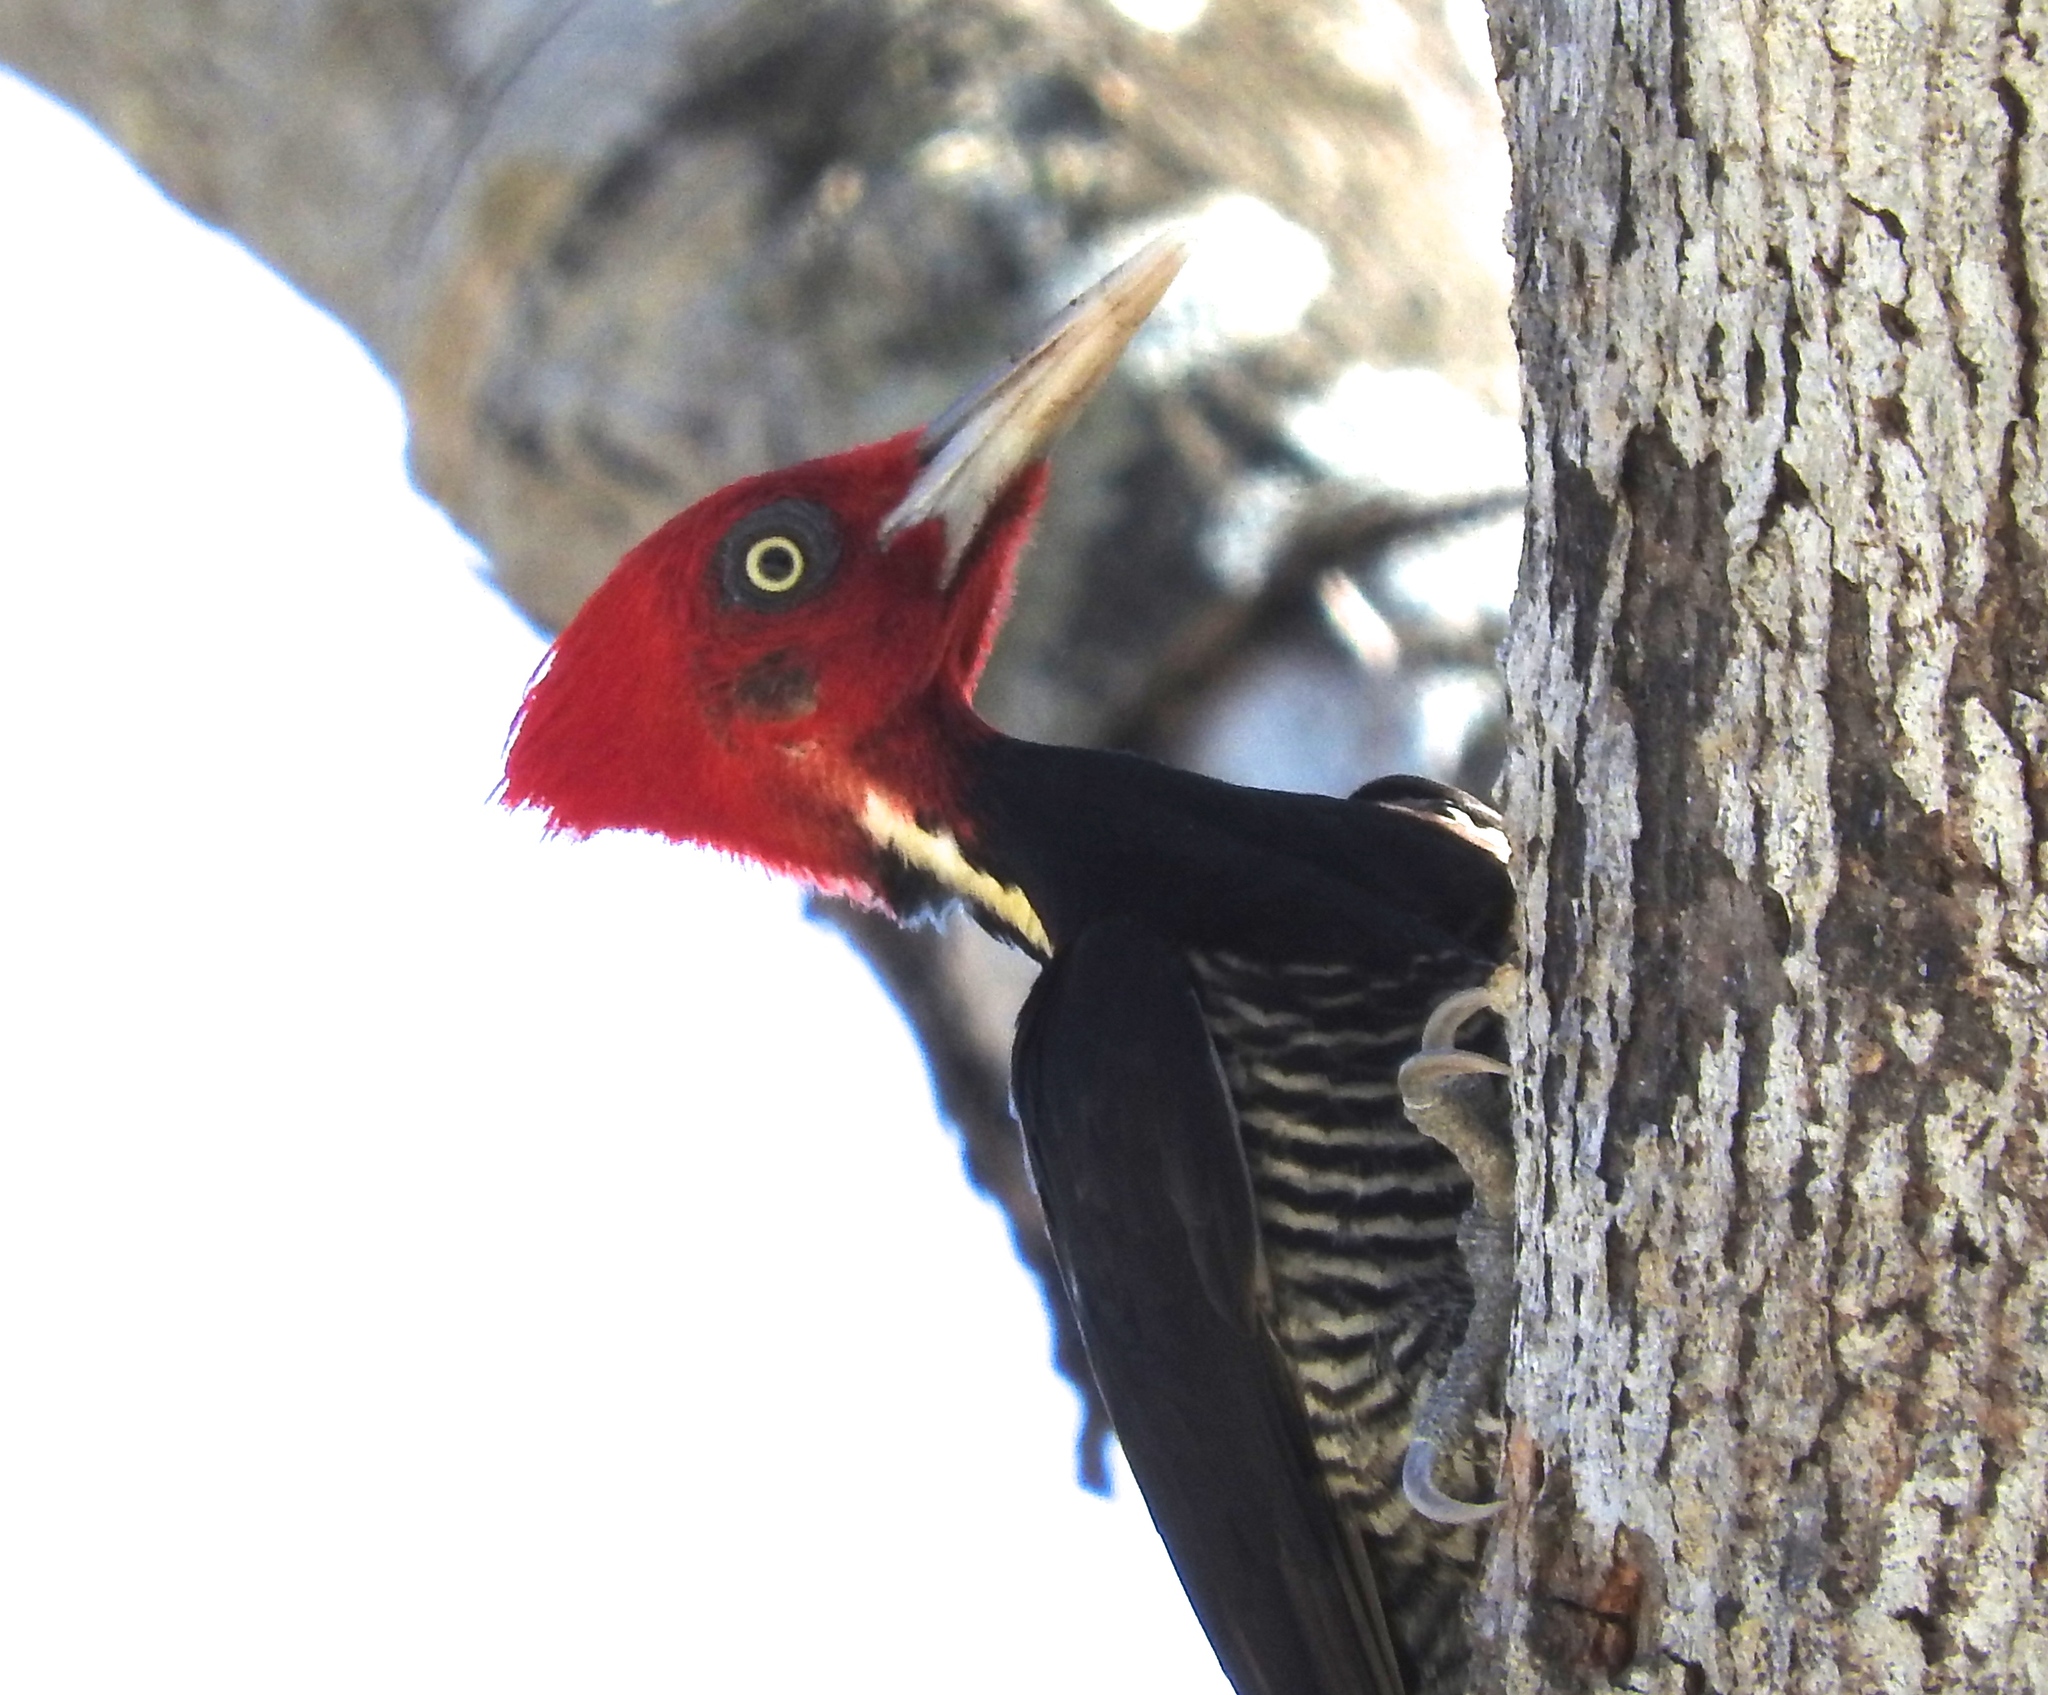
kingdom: Animalia
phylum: Chordata
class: Aves
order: Piciformes
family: Picidae
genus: Campephilus
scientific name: Campephilus guatemalensis
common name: Pale-billed woodpecker
